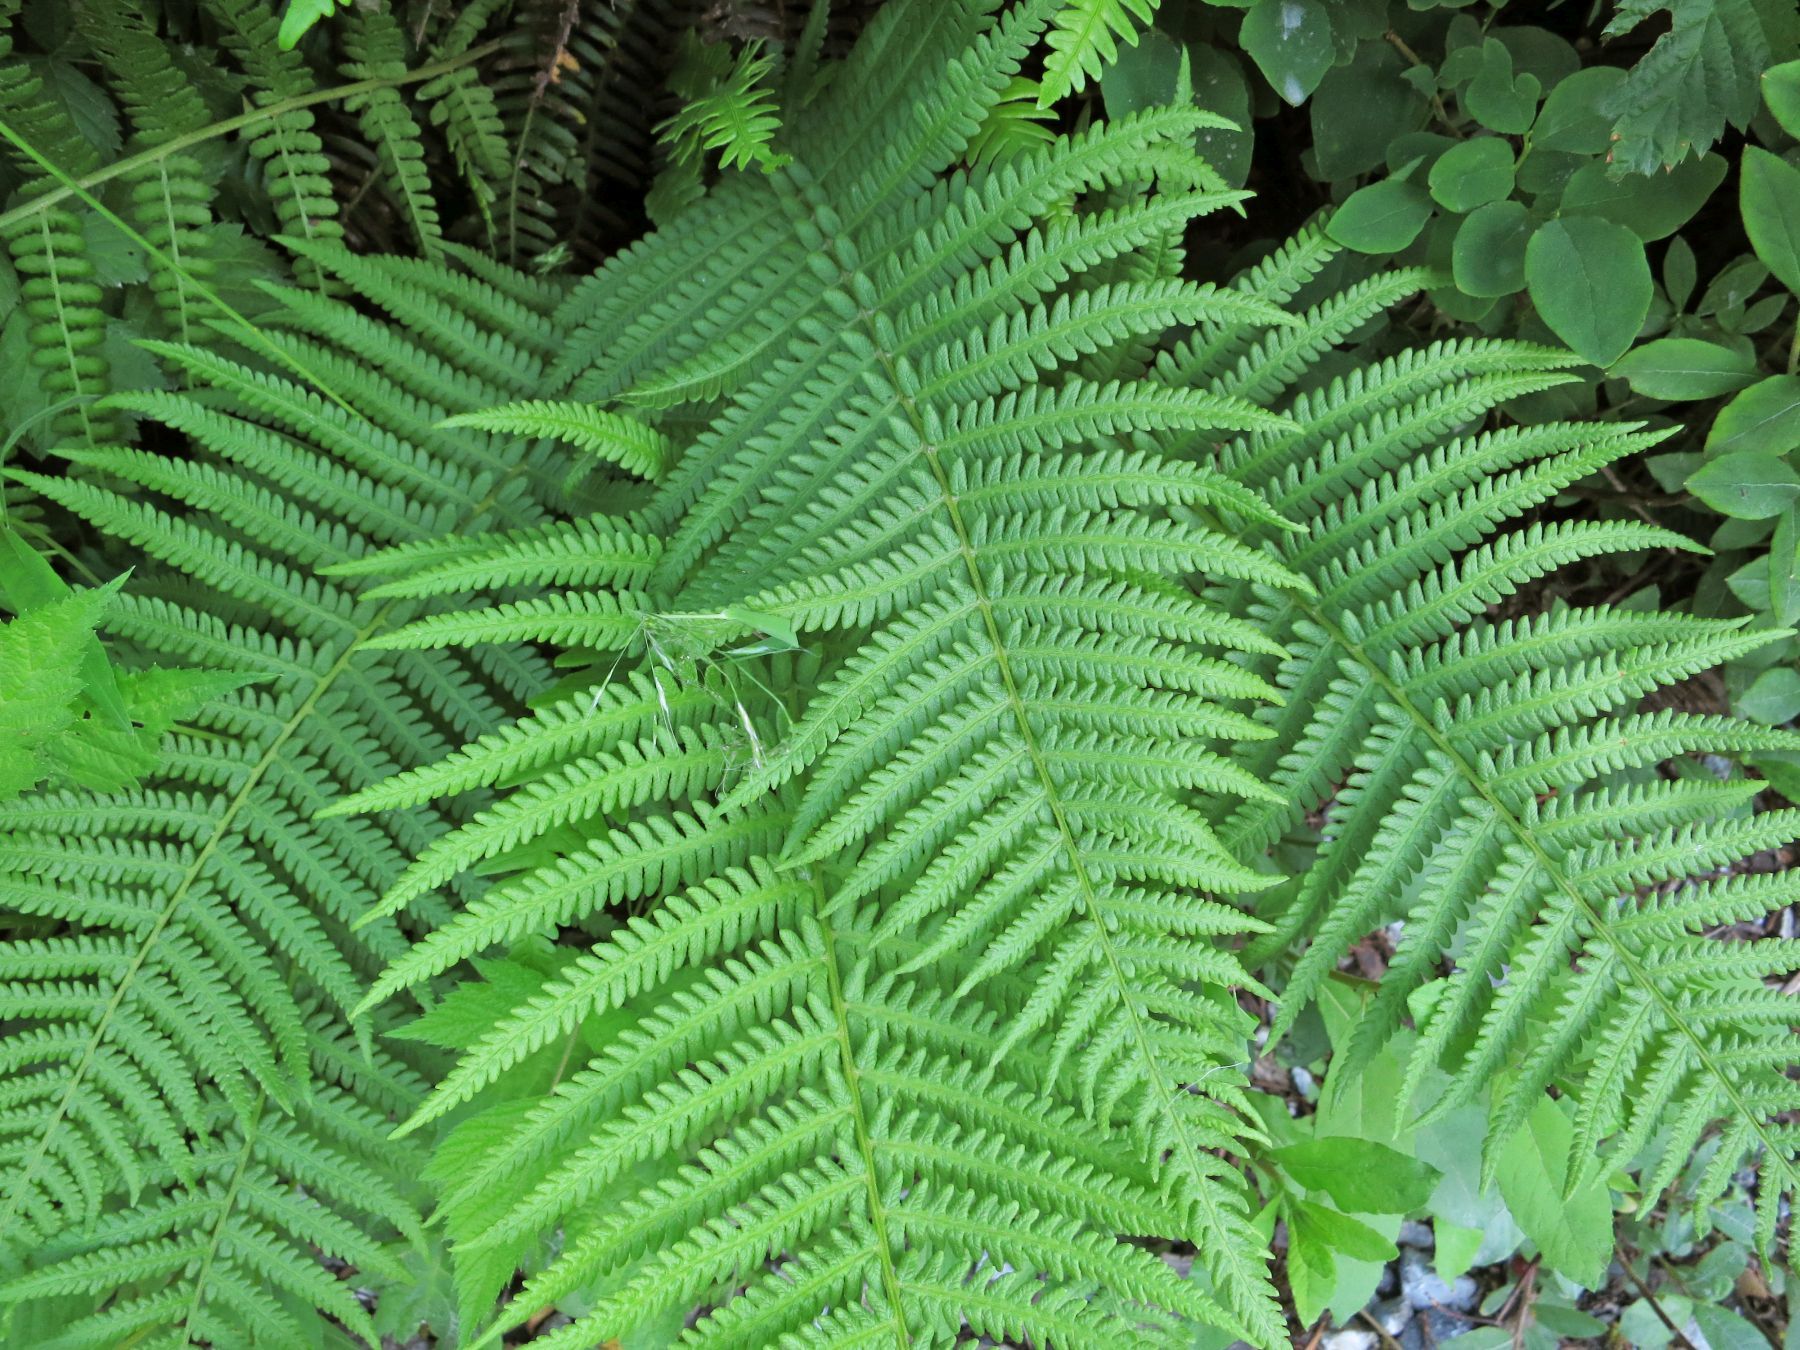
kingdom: Plantae
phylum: Tracheophyta
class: Polypodiopsida
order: Polypodiales
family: Thelypteridaceae
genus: Oreopteris
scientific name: Oreopteris quelpartensis
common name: Mountain fern
